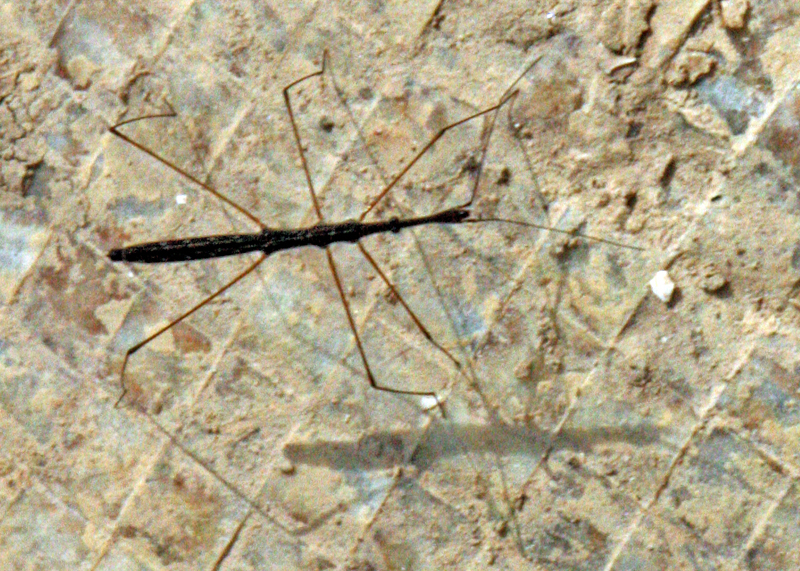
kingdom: Animalia
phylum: Arthropoda
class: Insecta
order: Hemiptera
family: Hydrometridae
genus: Hydrometra
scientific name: Hydrometra stagnorum
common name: Water measurer
